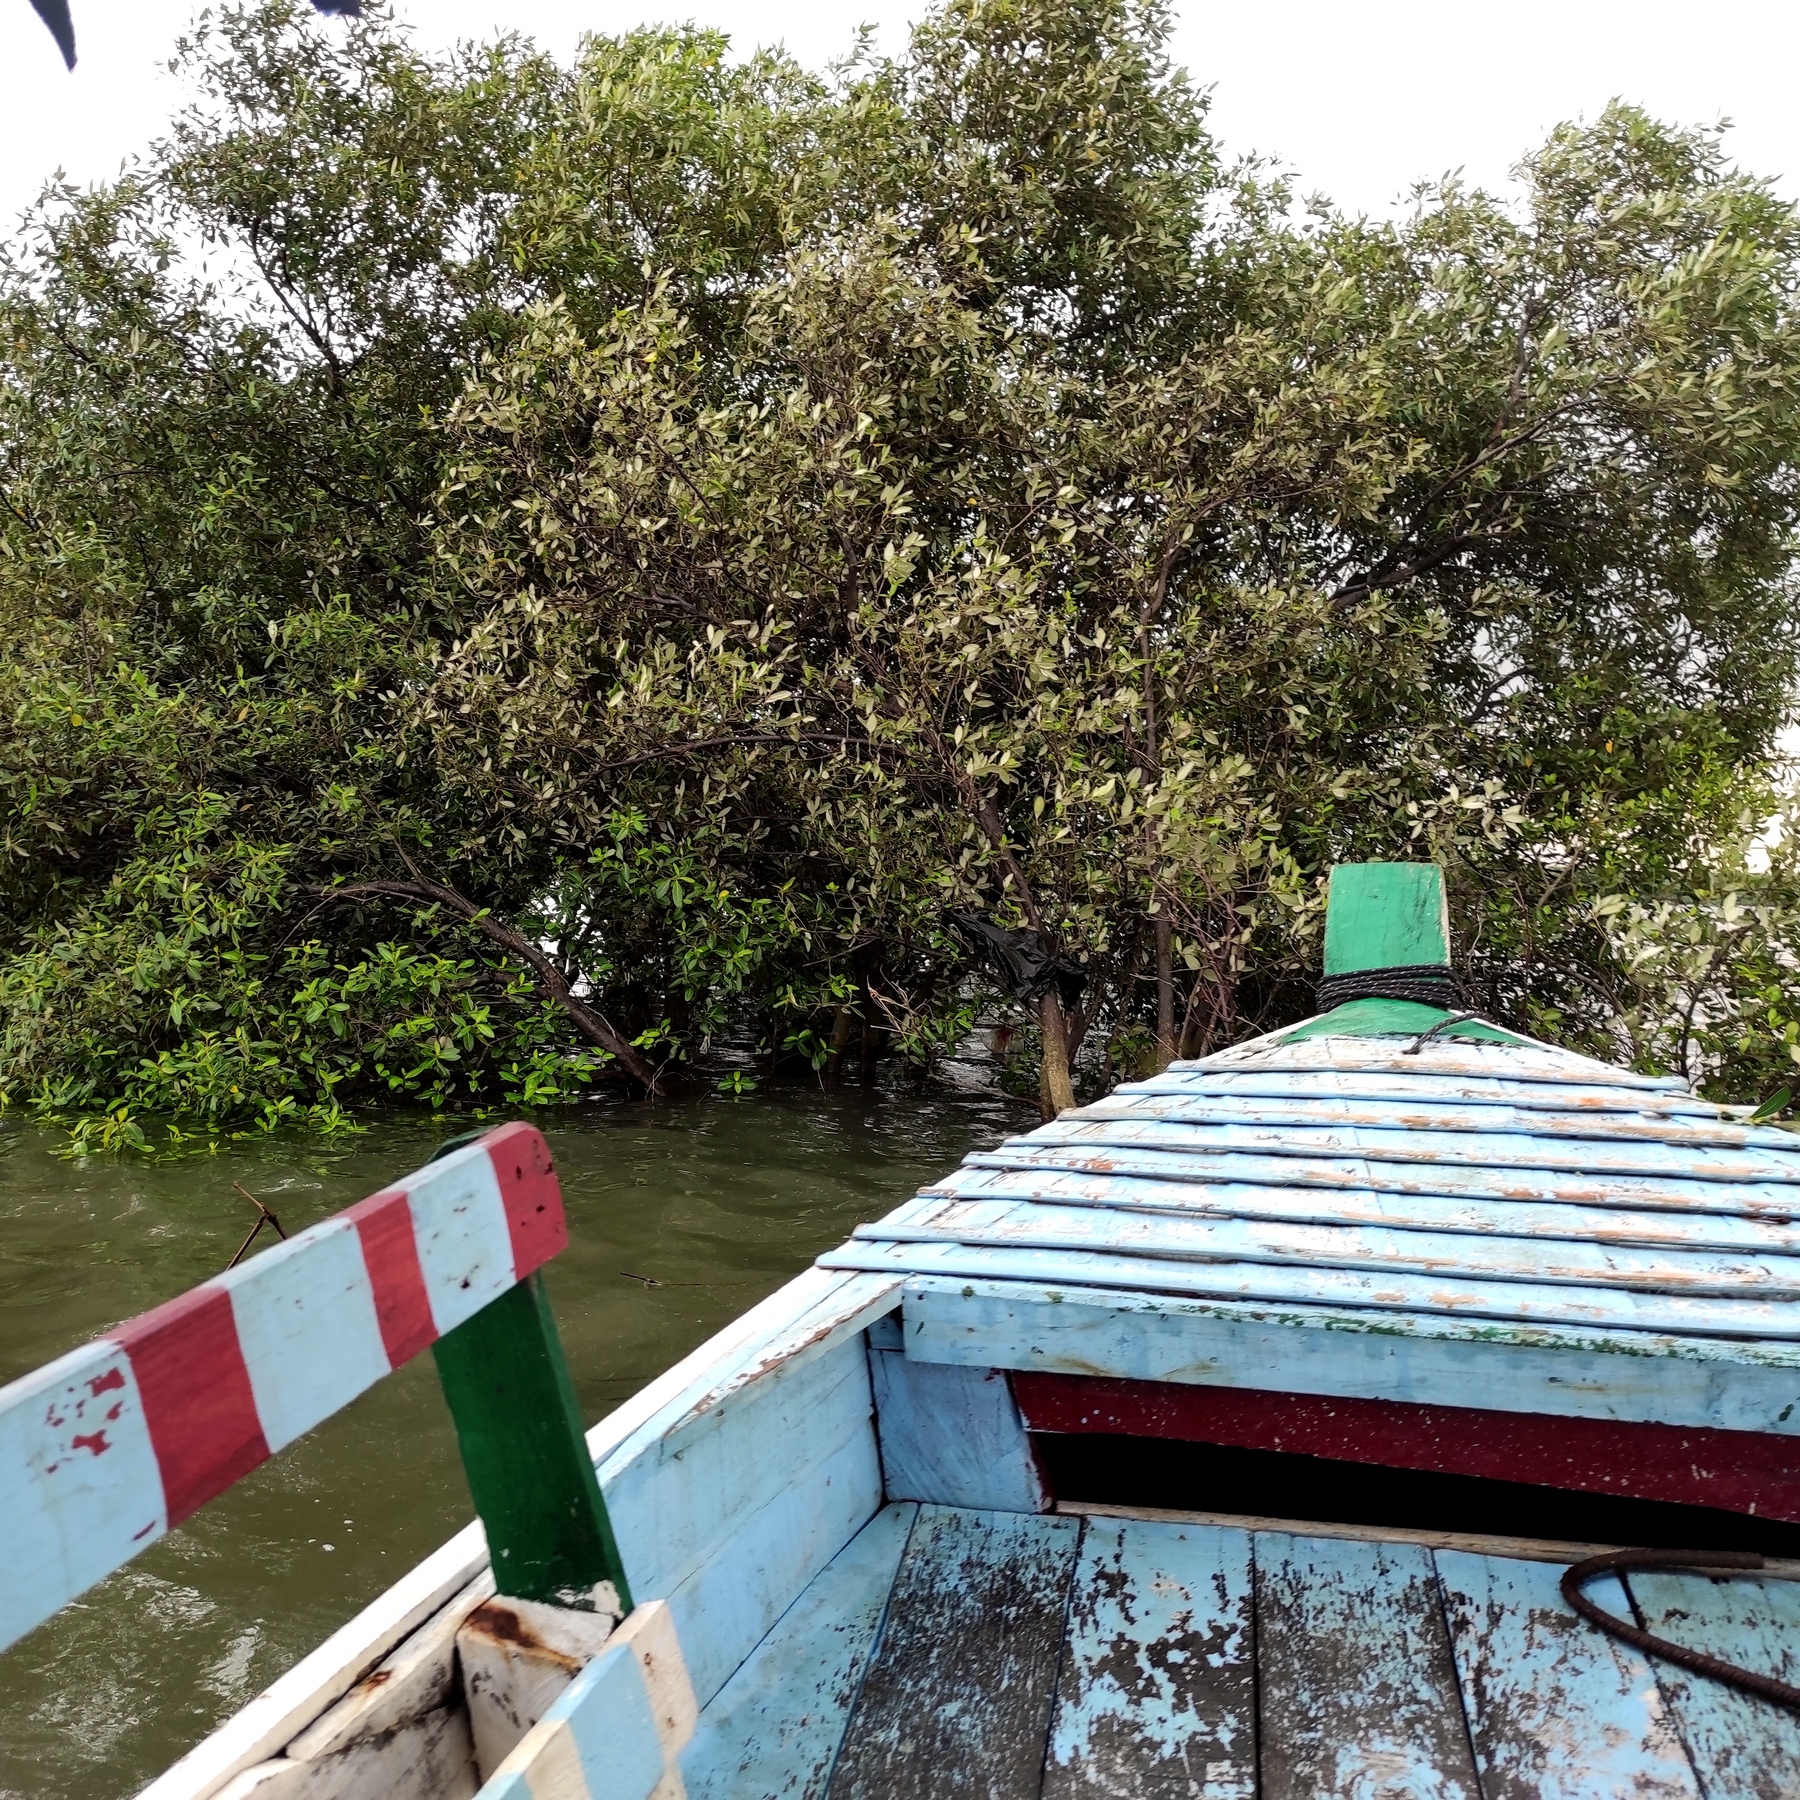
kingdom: Plantae
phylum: Tracheophyta
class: Magnoliopsida
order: Lamiales
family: Acanthaceae
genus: Avicennia
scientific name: Avicennia alba
